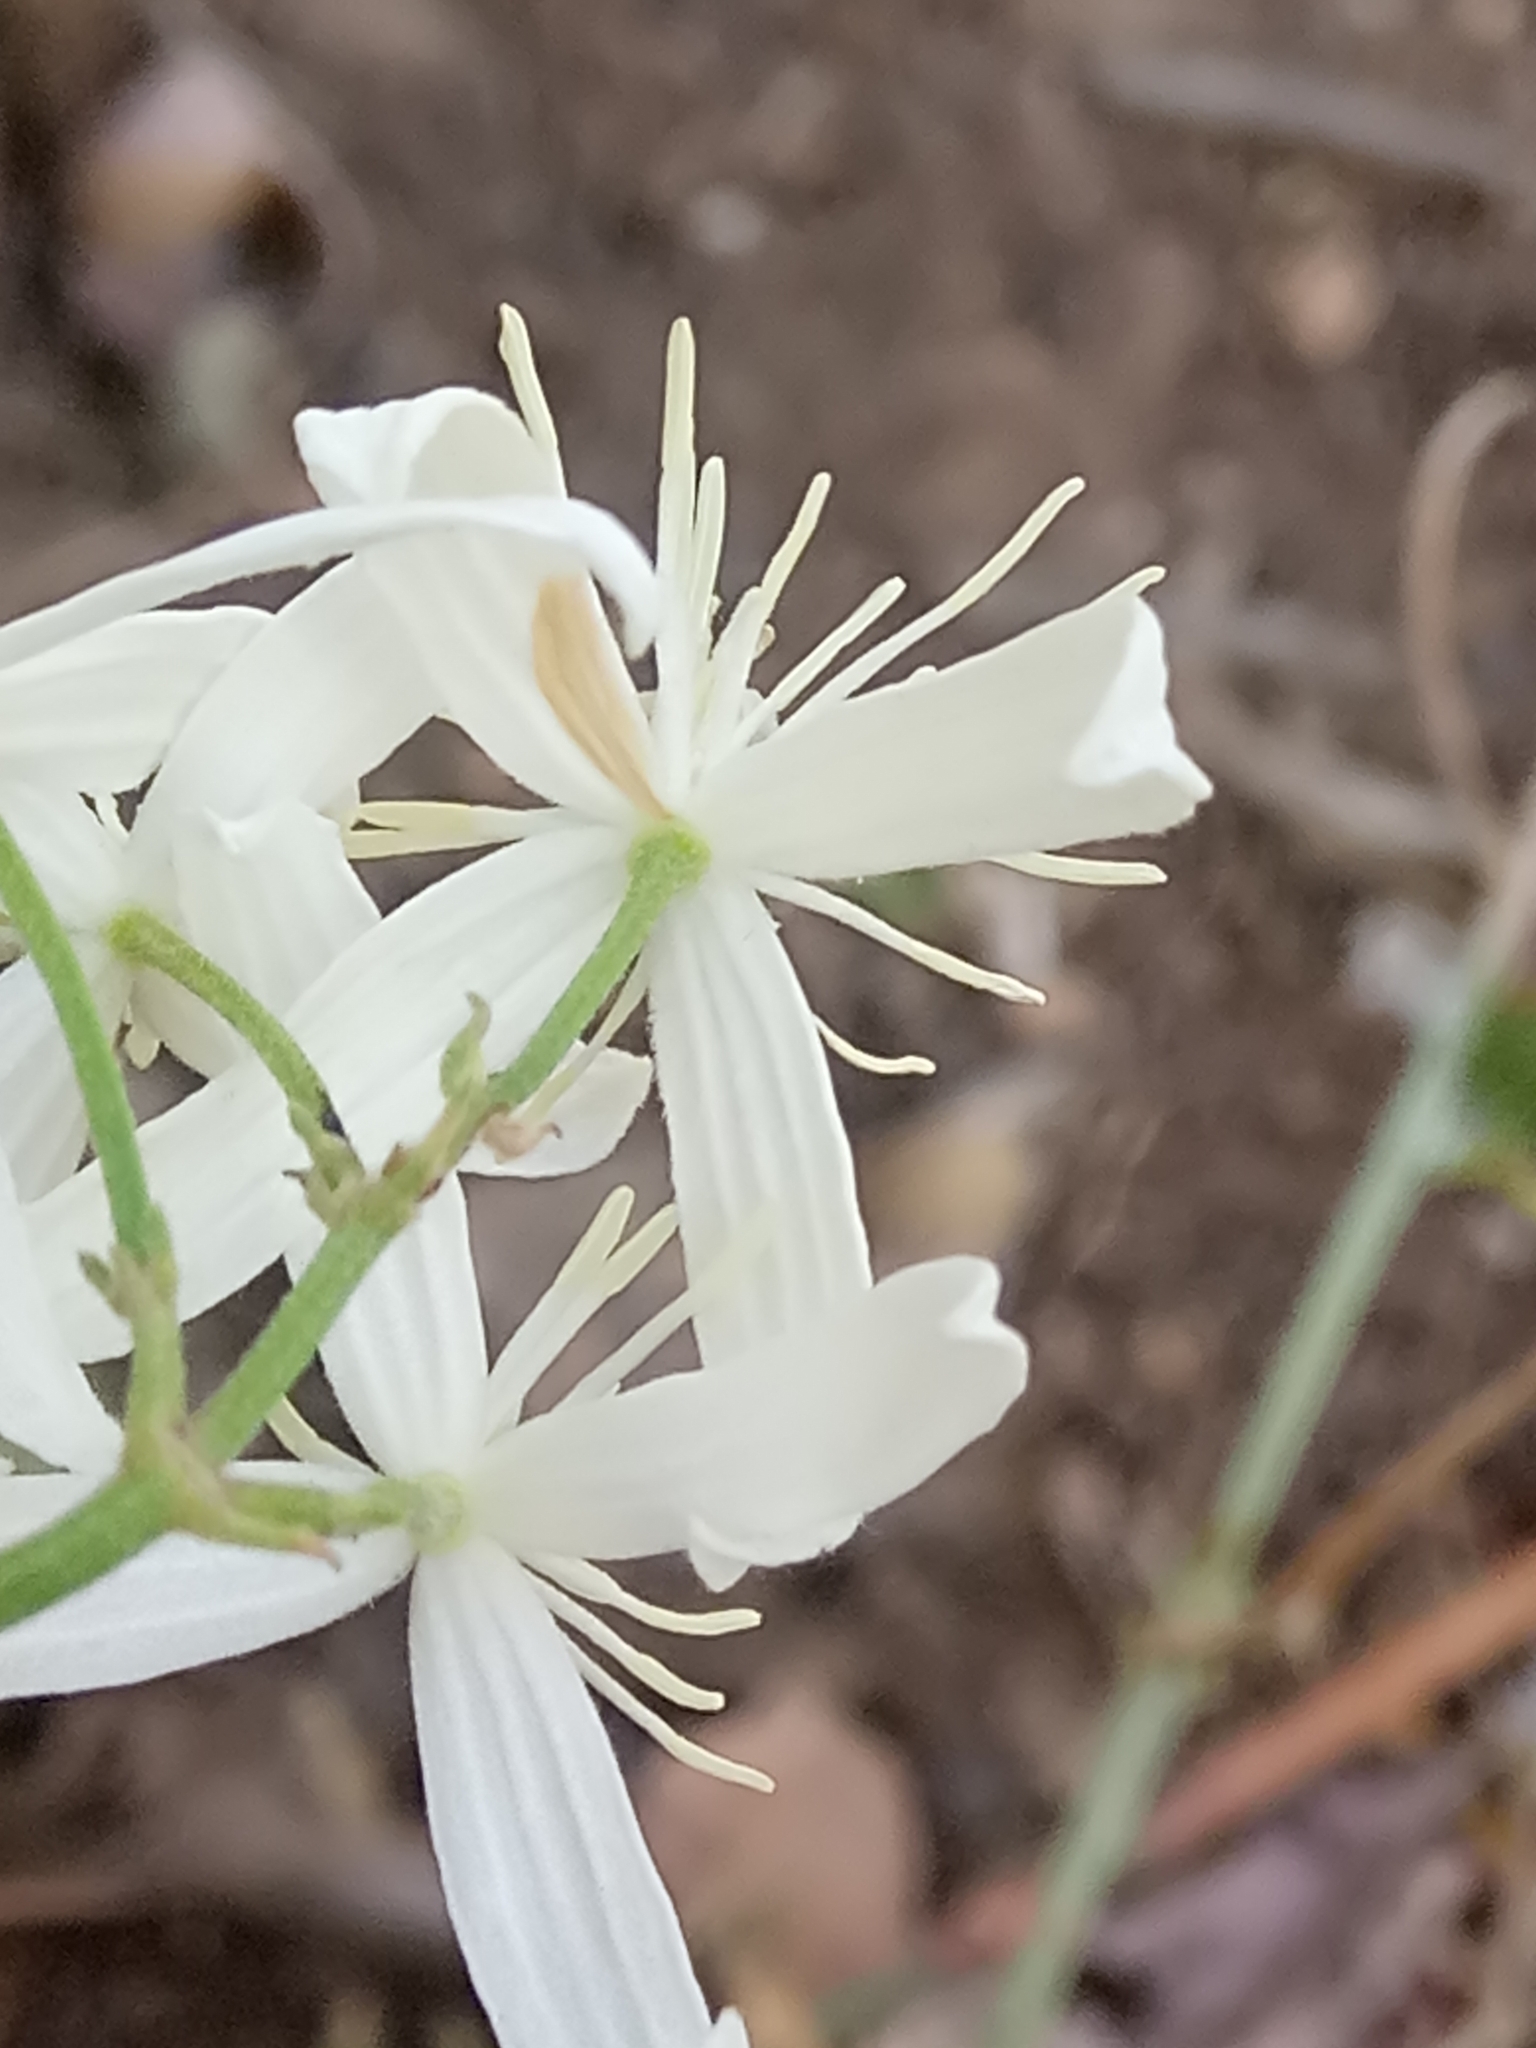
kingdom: Plantae
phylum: Tracheophyta
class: Magnoliopsida
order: Ranunculales
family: Ranunculaceae
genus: Clematis
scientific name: Clematis flammula
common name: Virgin's-bower
